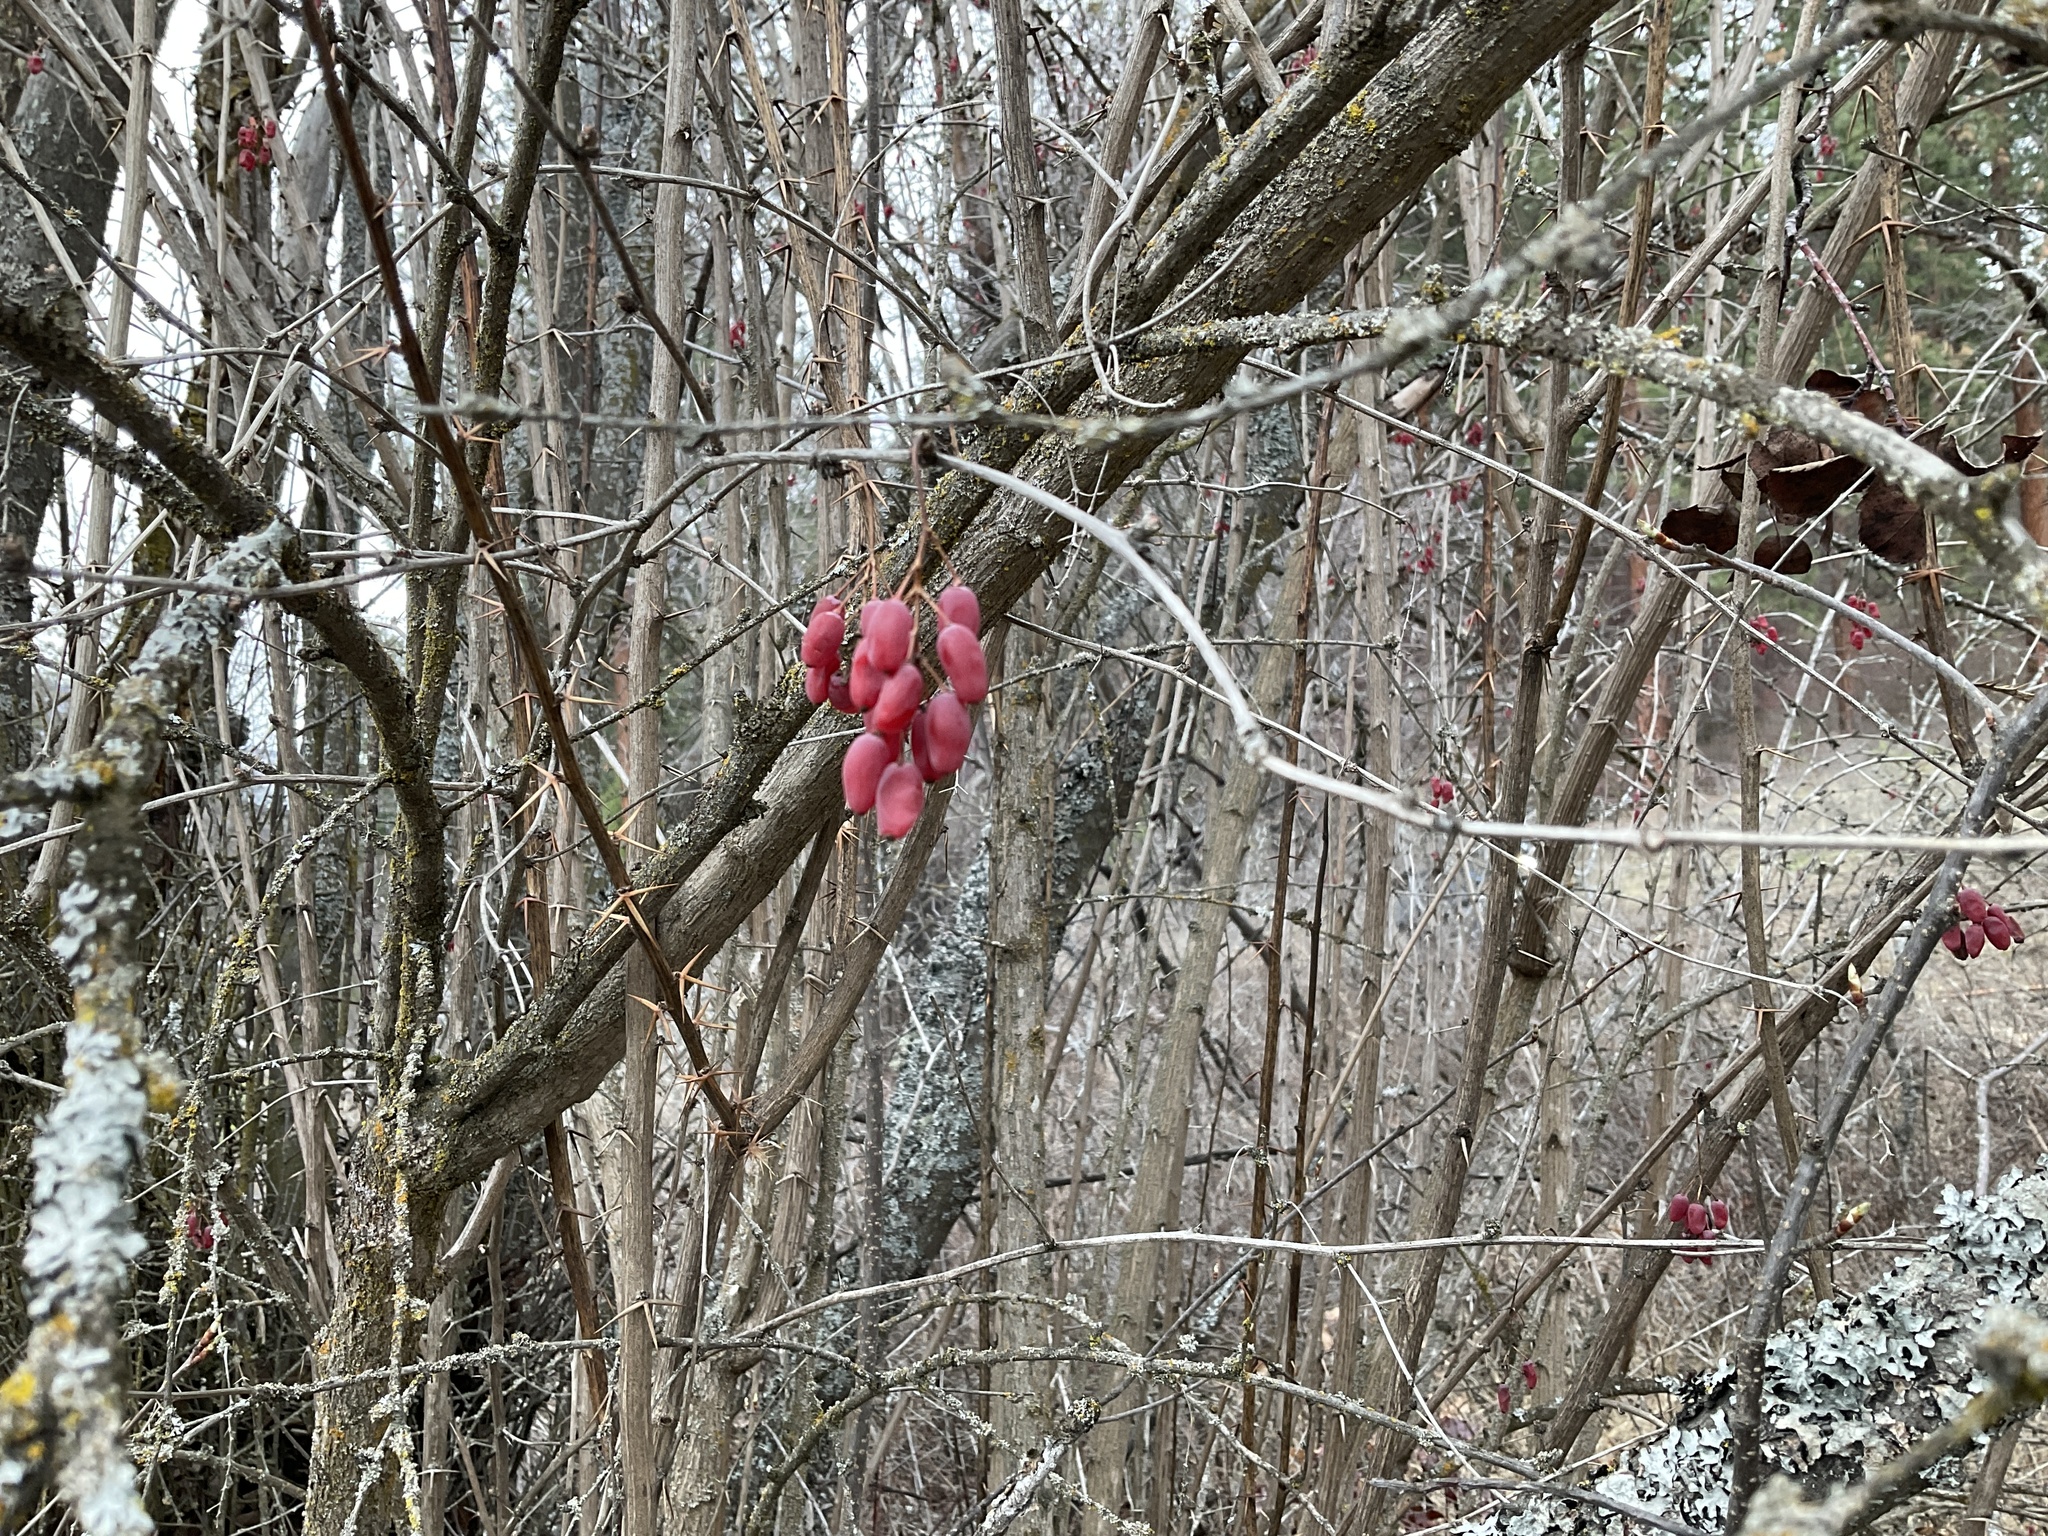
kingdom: Plantae
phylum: Tracheophyta
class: Magnoliopsida
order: Ranunculales
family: Berberidaceae
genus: Berberis
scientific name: Berberis vulgaris
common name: Barberry
